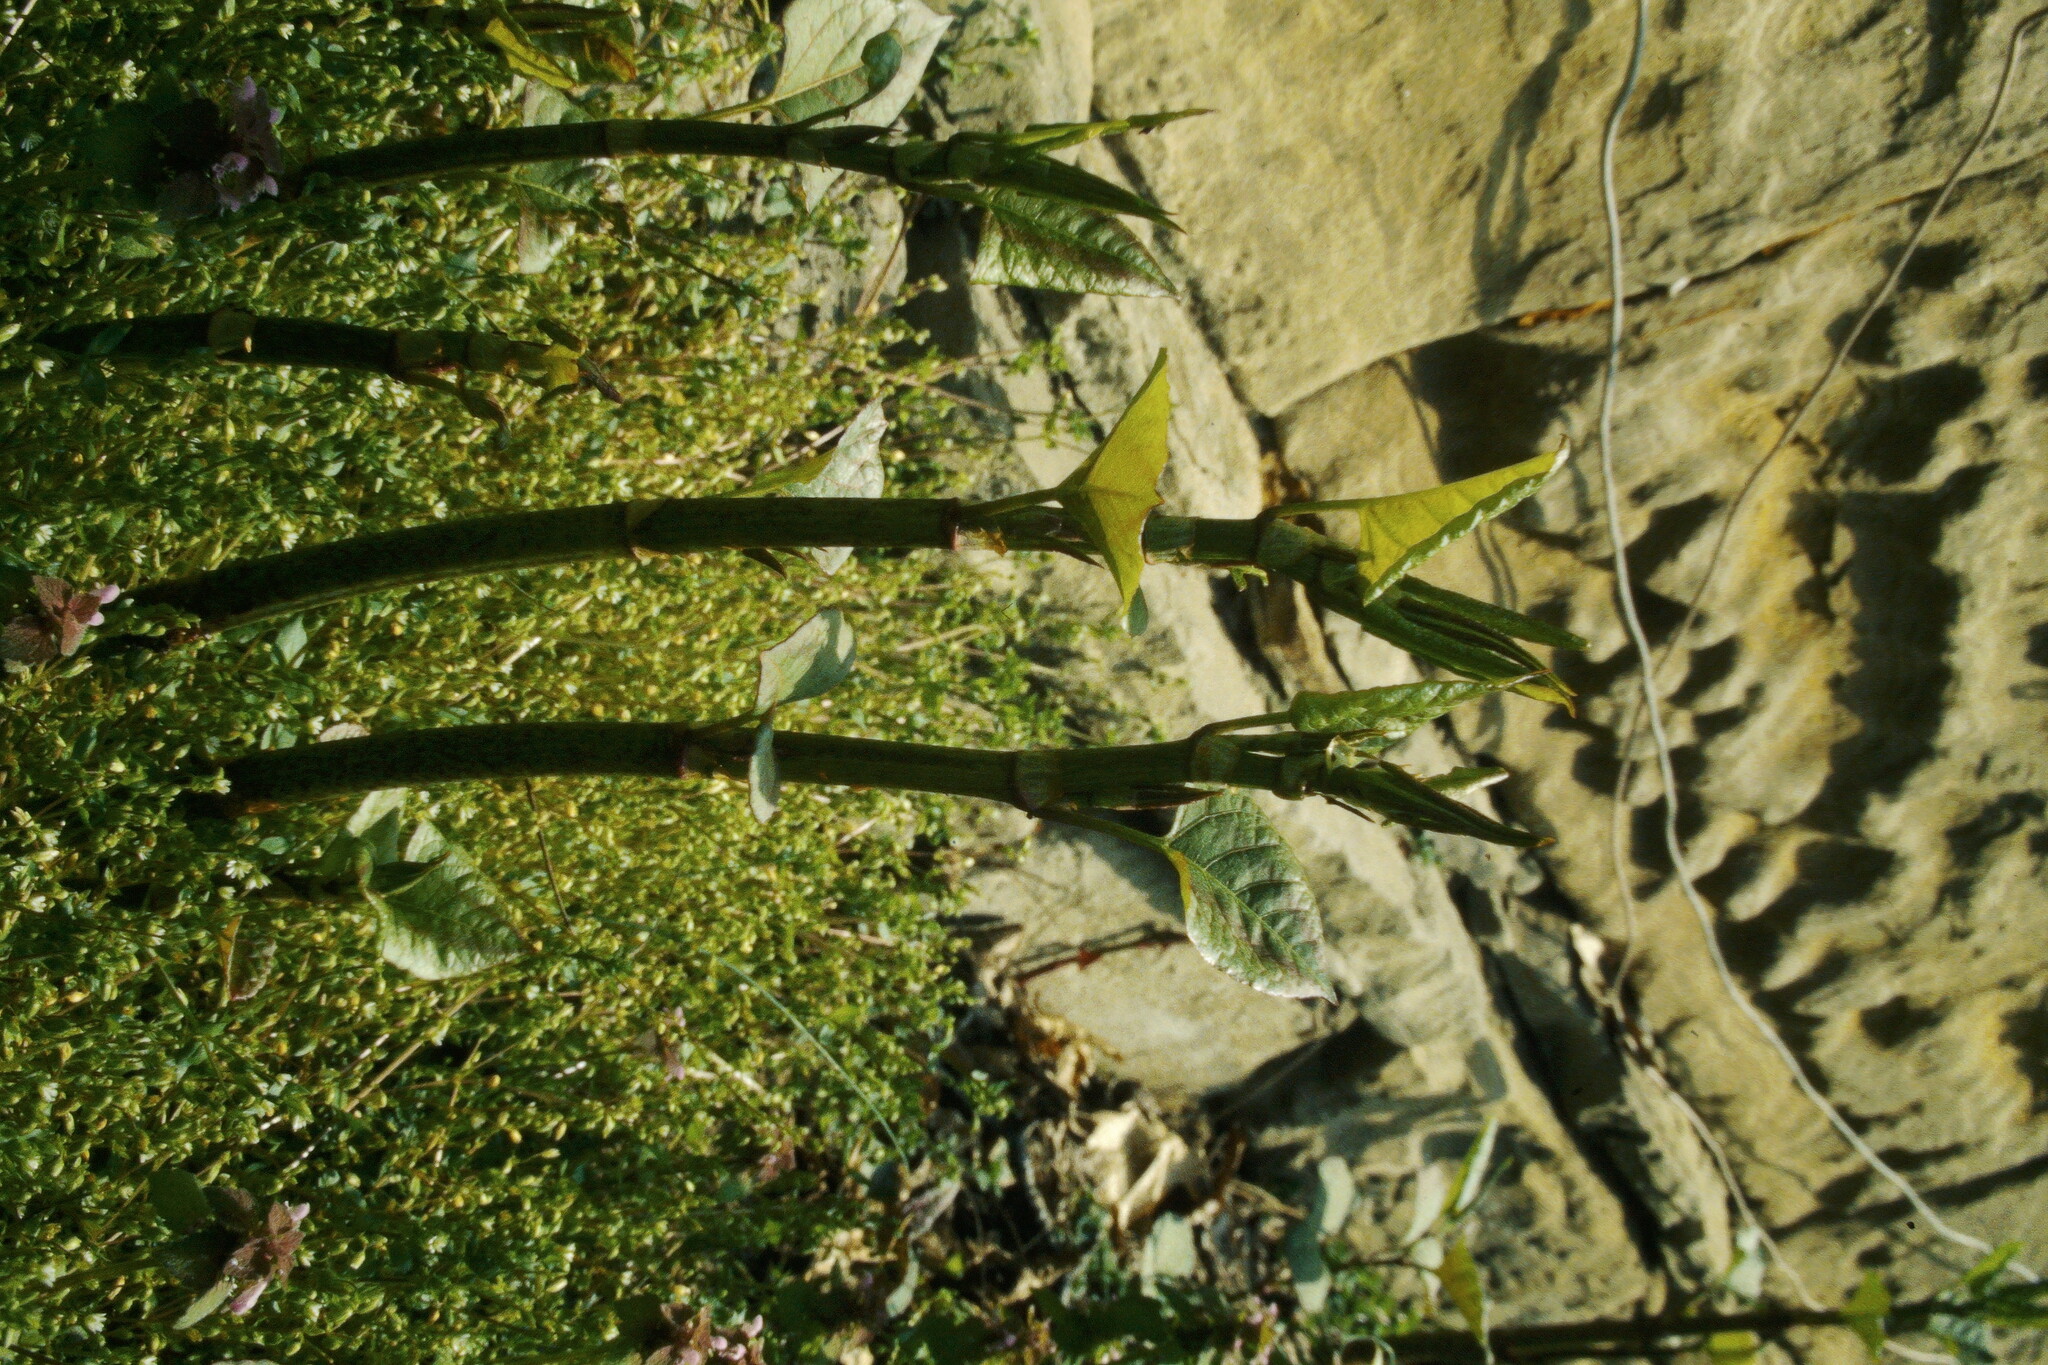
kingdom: Plantae
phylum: Tracheophyta
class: Magnoliopsida
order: Caryophyllales
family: Polygonaceae
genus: Reynoutria
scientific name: Reynoutria japonica
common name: Japanese knotweed
